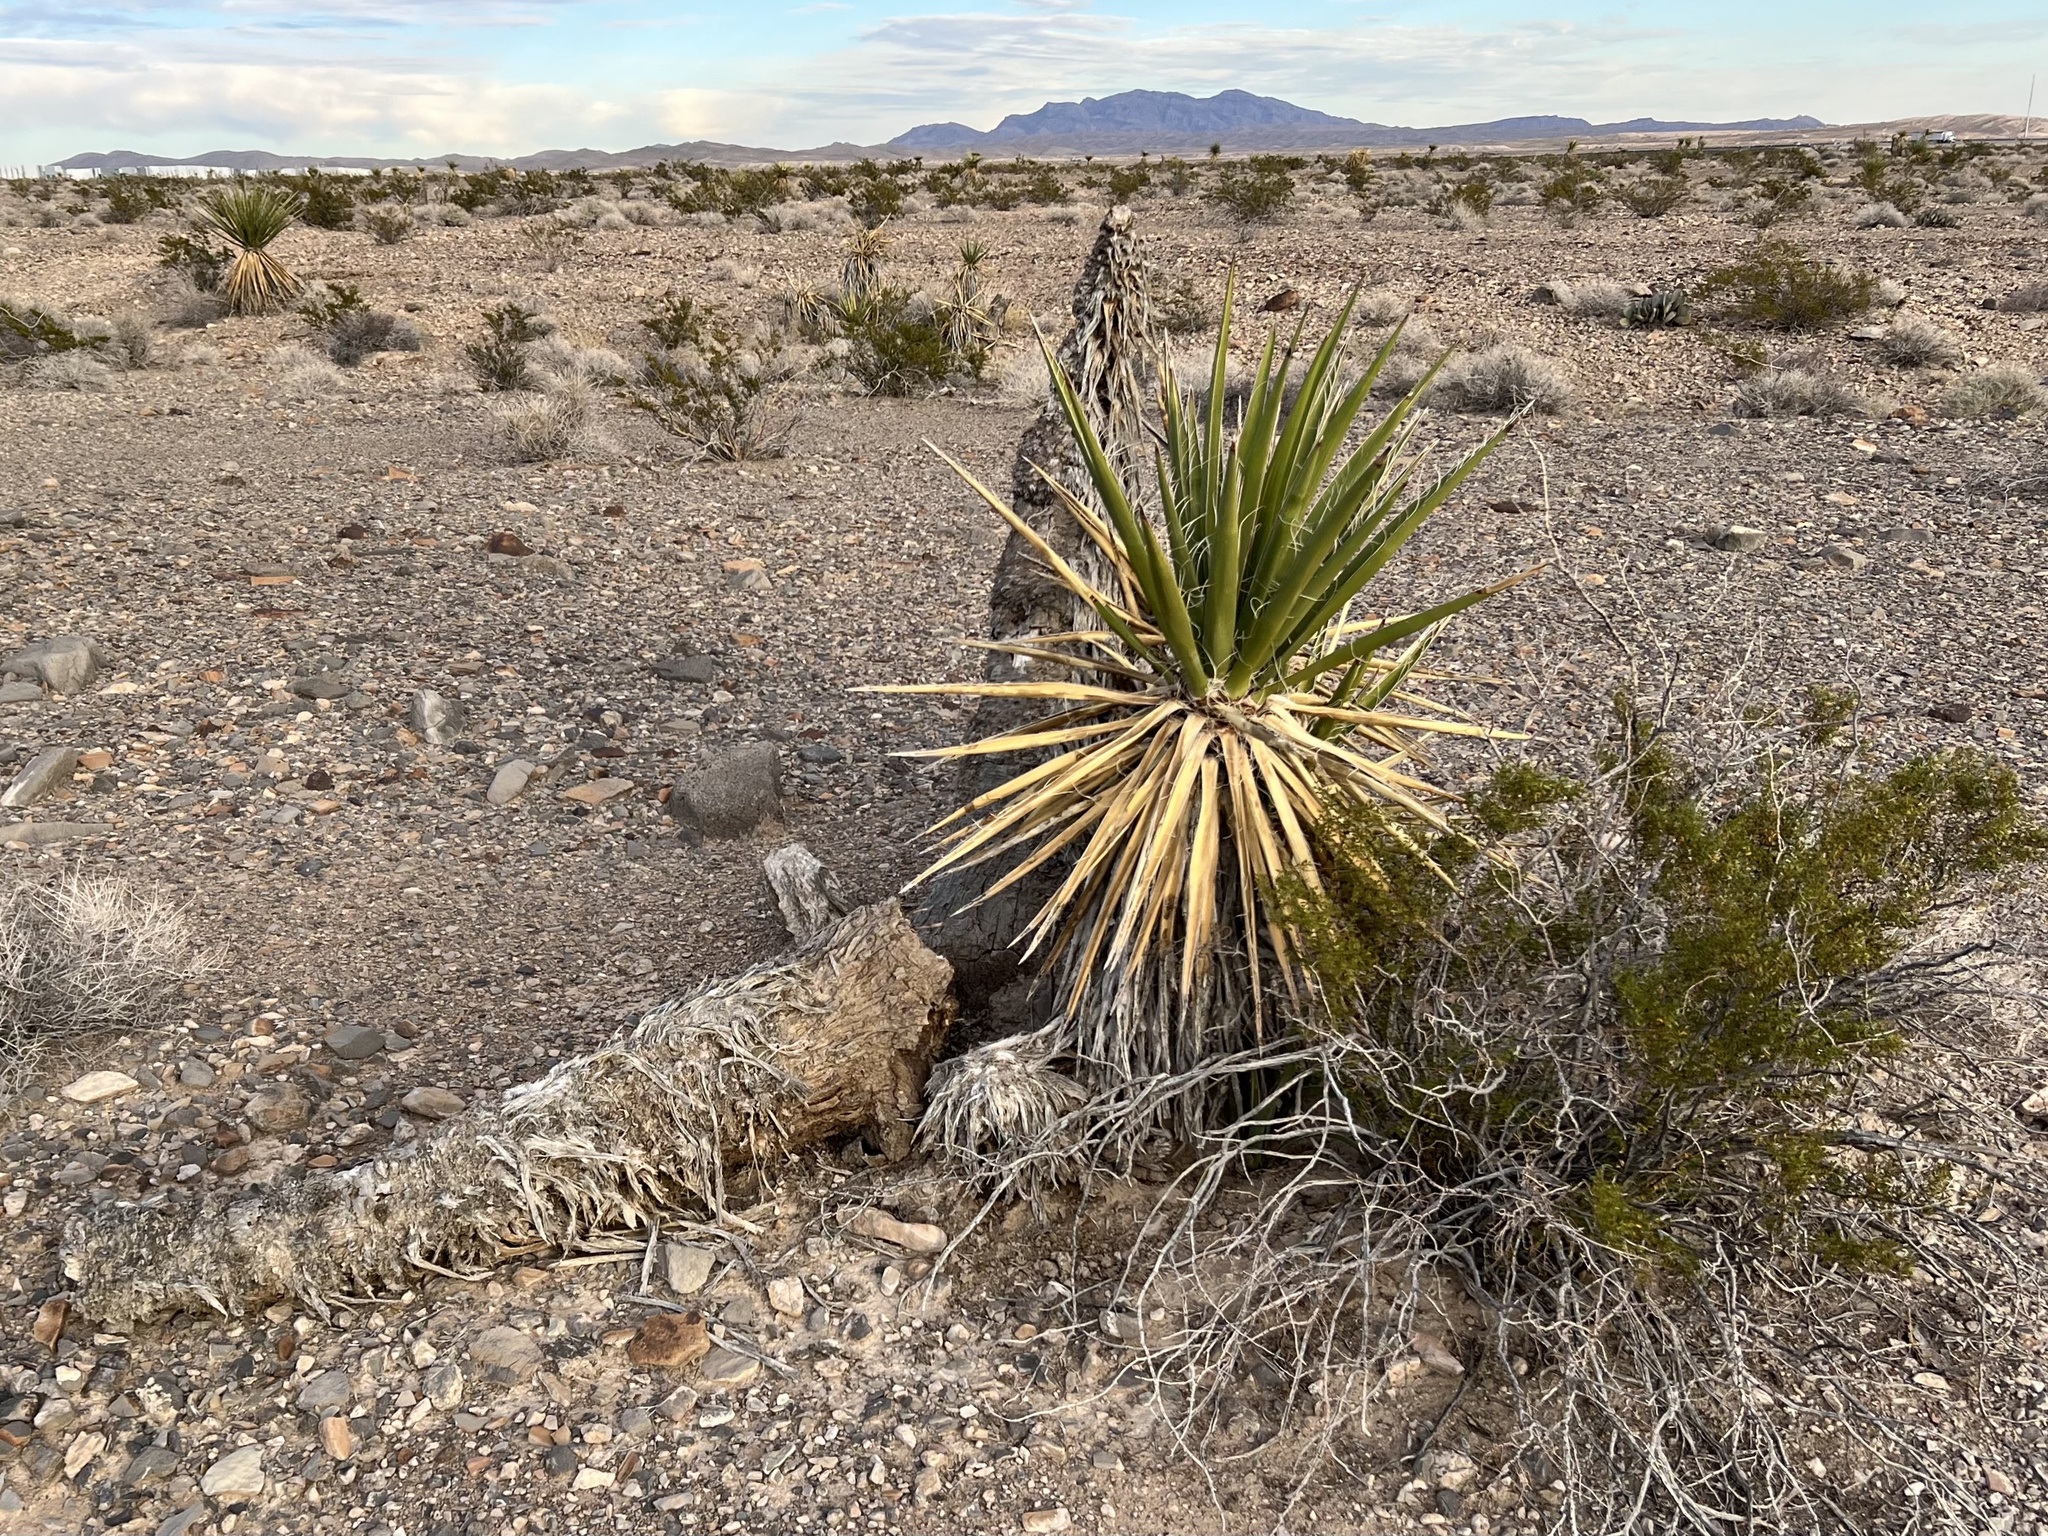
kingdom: Plantae
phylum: Tracheophyta
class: Liliopsida
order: Asparagales
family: Asparagaceae
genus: Yucca
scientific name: Yucca schidigera
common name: Mojave yucca
